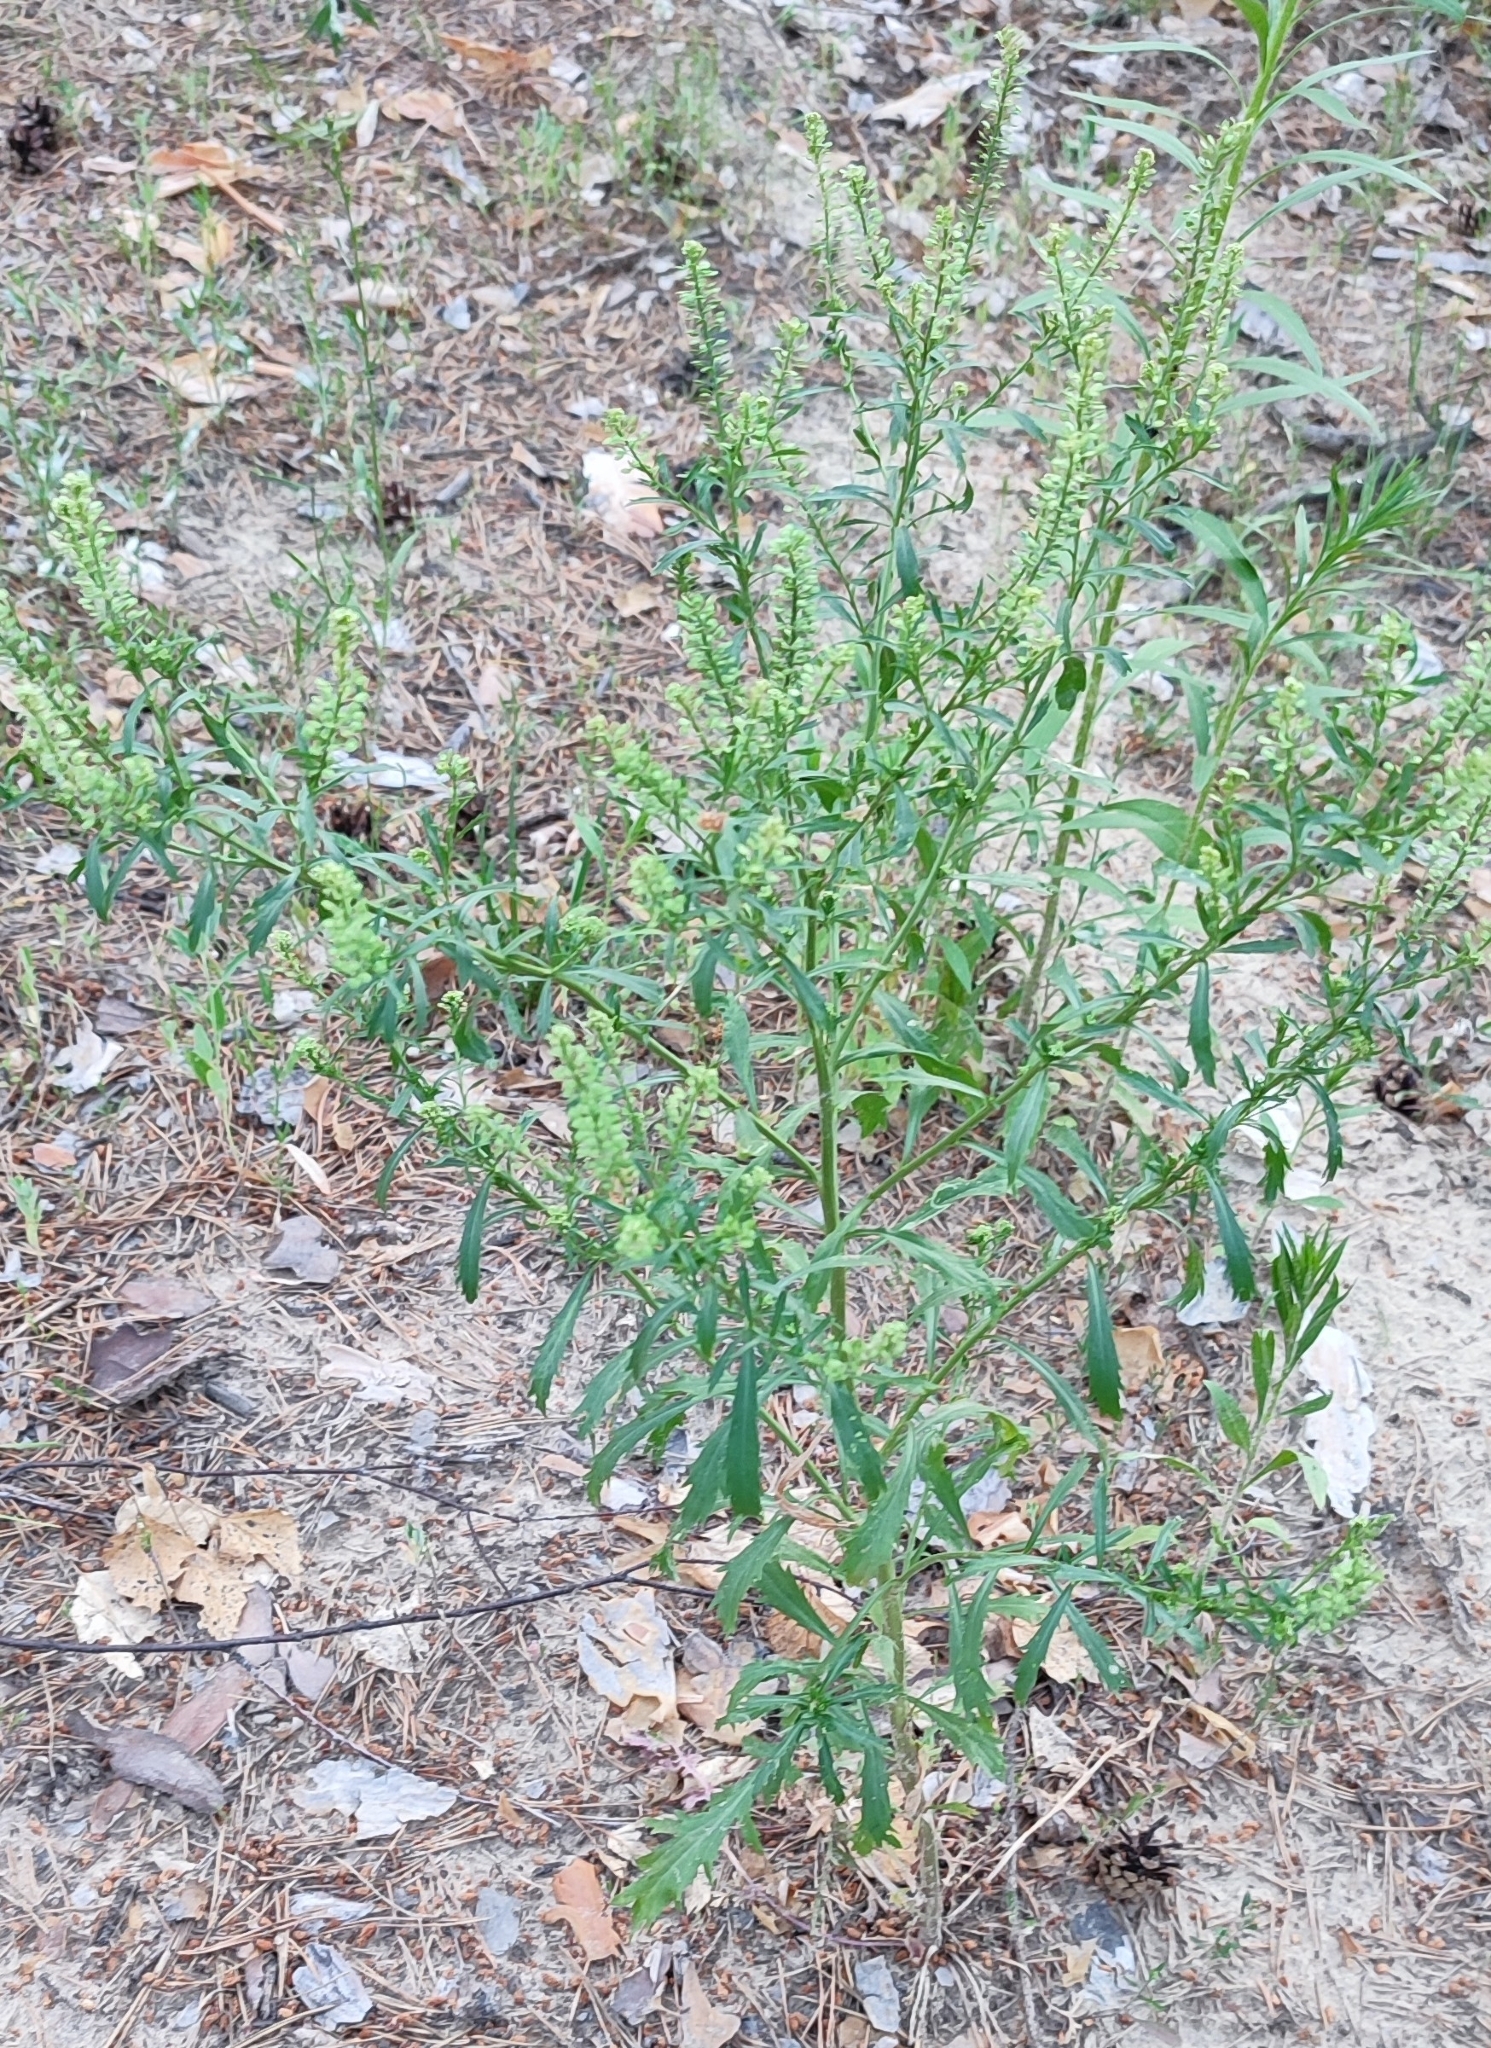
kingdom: Plantae
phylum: Tracheophyta
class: Magnoliopsida
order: Brassicales
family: Brassicaceae
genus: Lepidium
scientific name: Lepidium densiflorum
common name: Miner's pepperwort
